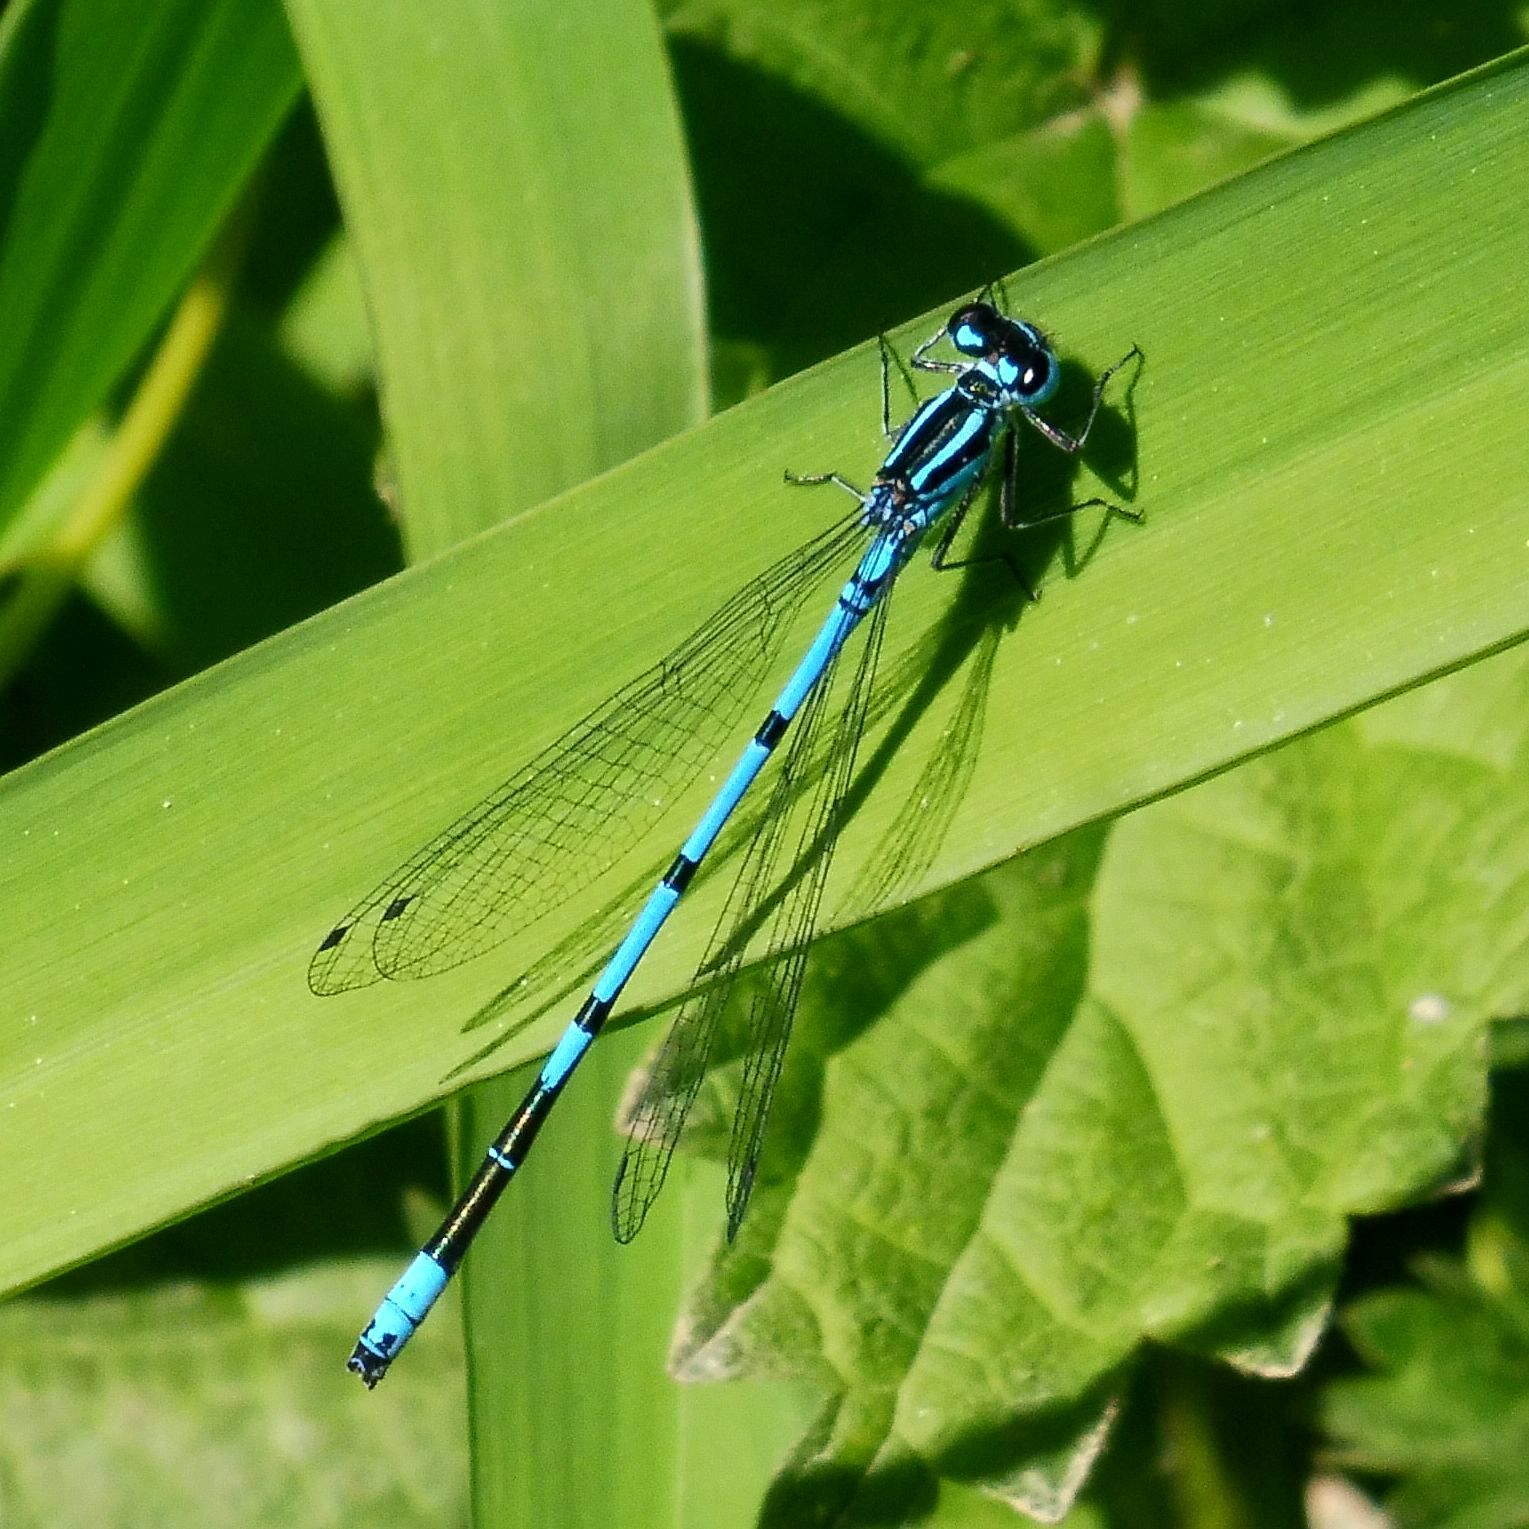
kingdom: Animalia
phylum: Arthropoda
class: Insecta
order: Odonata
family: Coenagrionidae
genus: Coenagrion
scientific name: Coenagrion puella
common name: Azure damselfly
